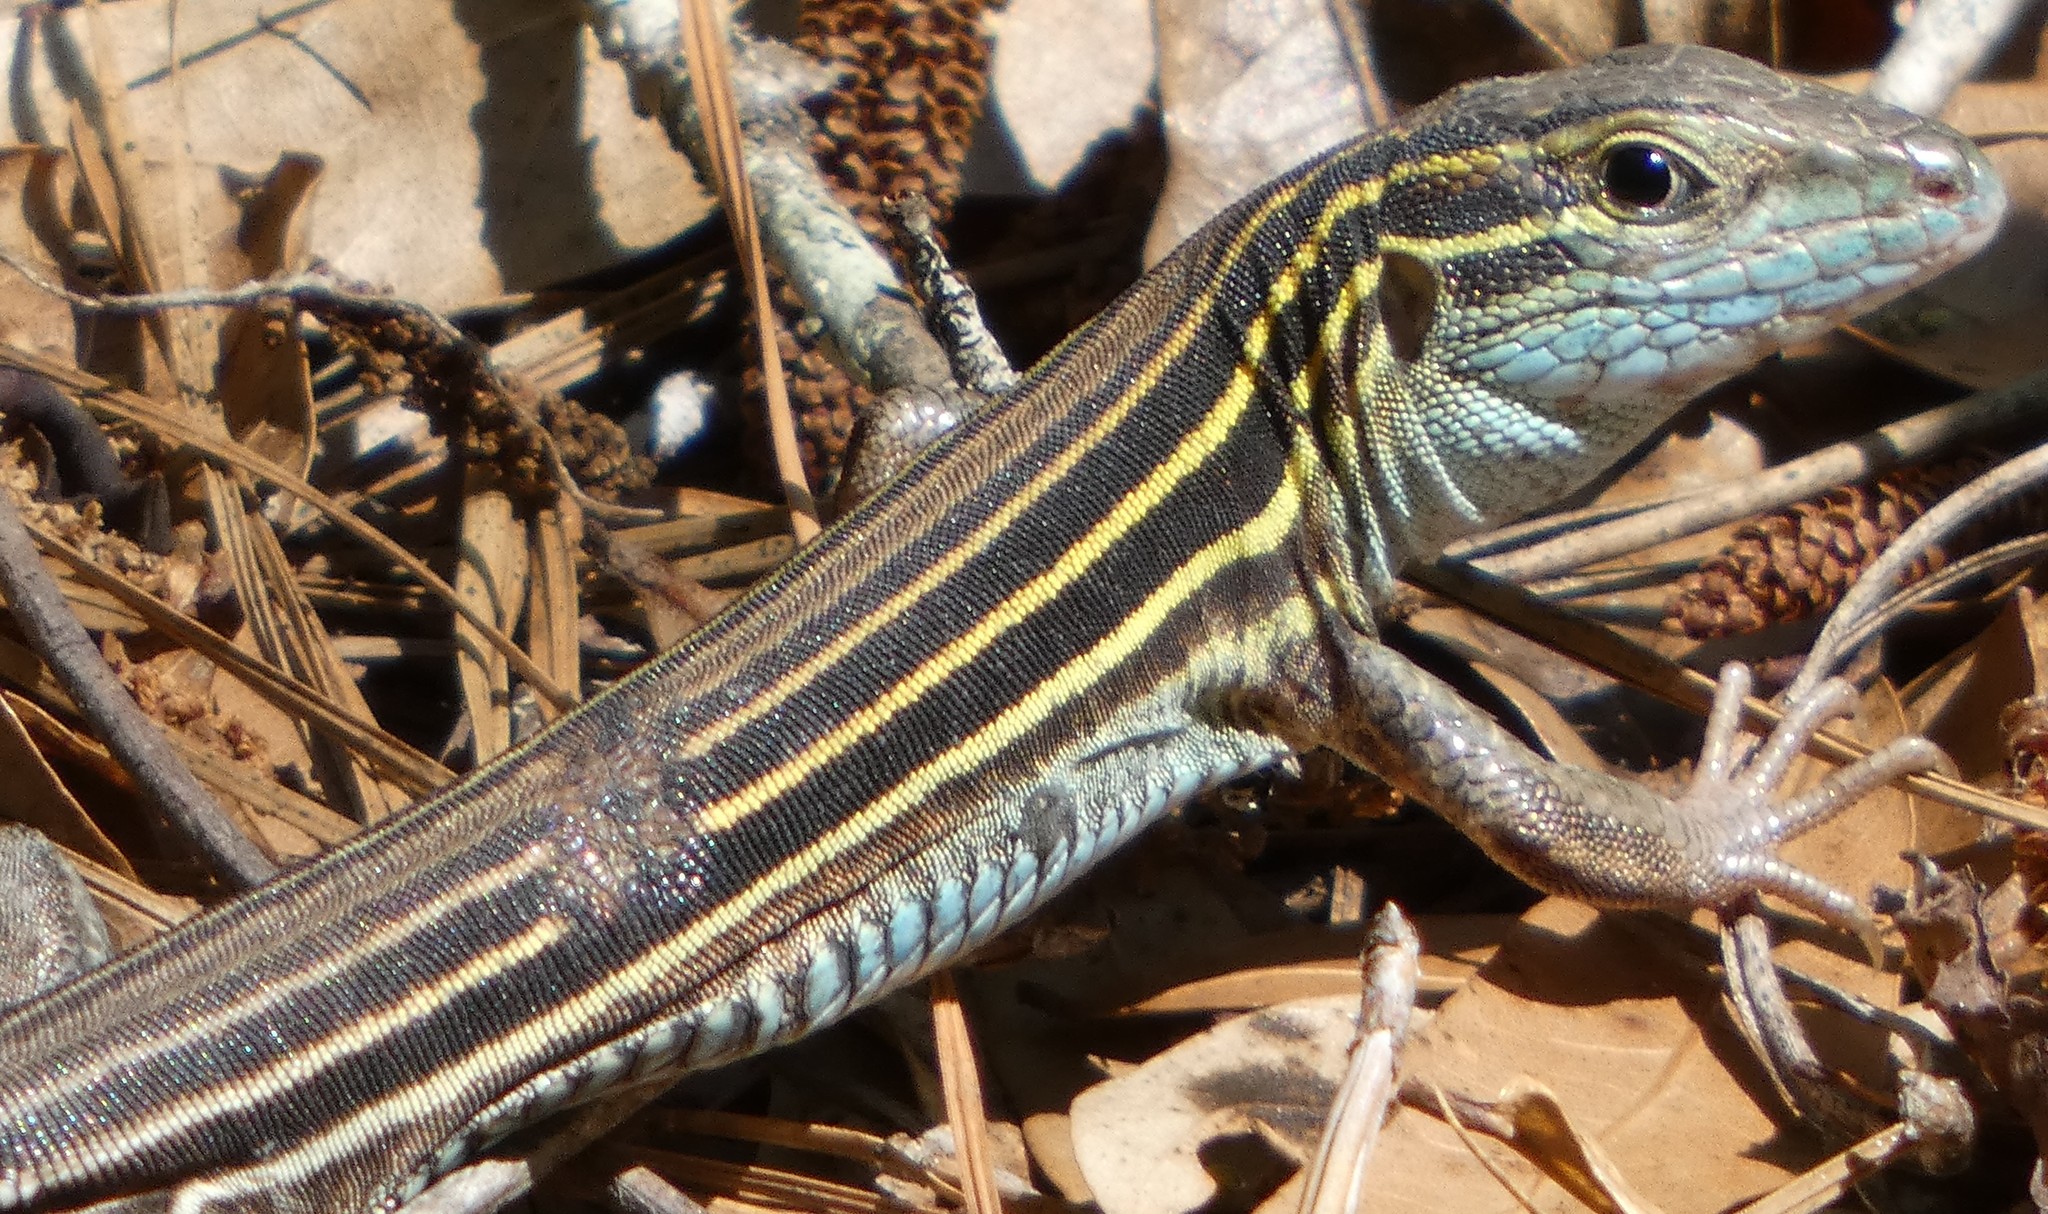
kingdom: Animalia
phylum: Chordata
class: Squamata
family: Teiidae
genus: Aspidoscelis
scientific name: Aspidoscelis sexlineatus
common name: Six-lined racerunner
